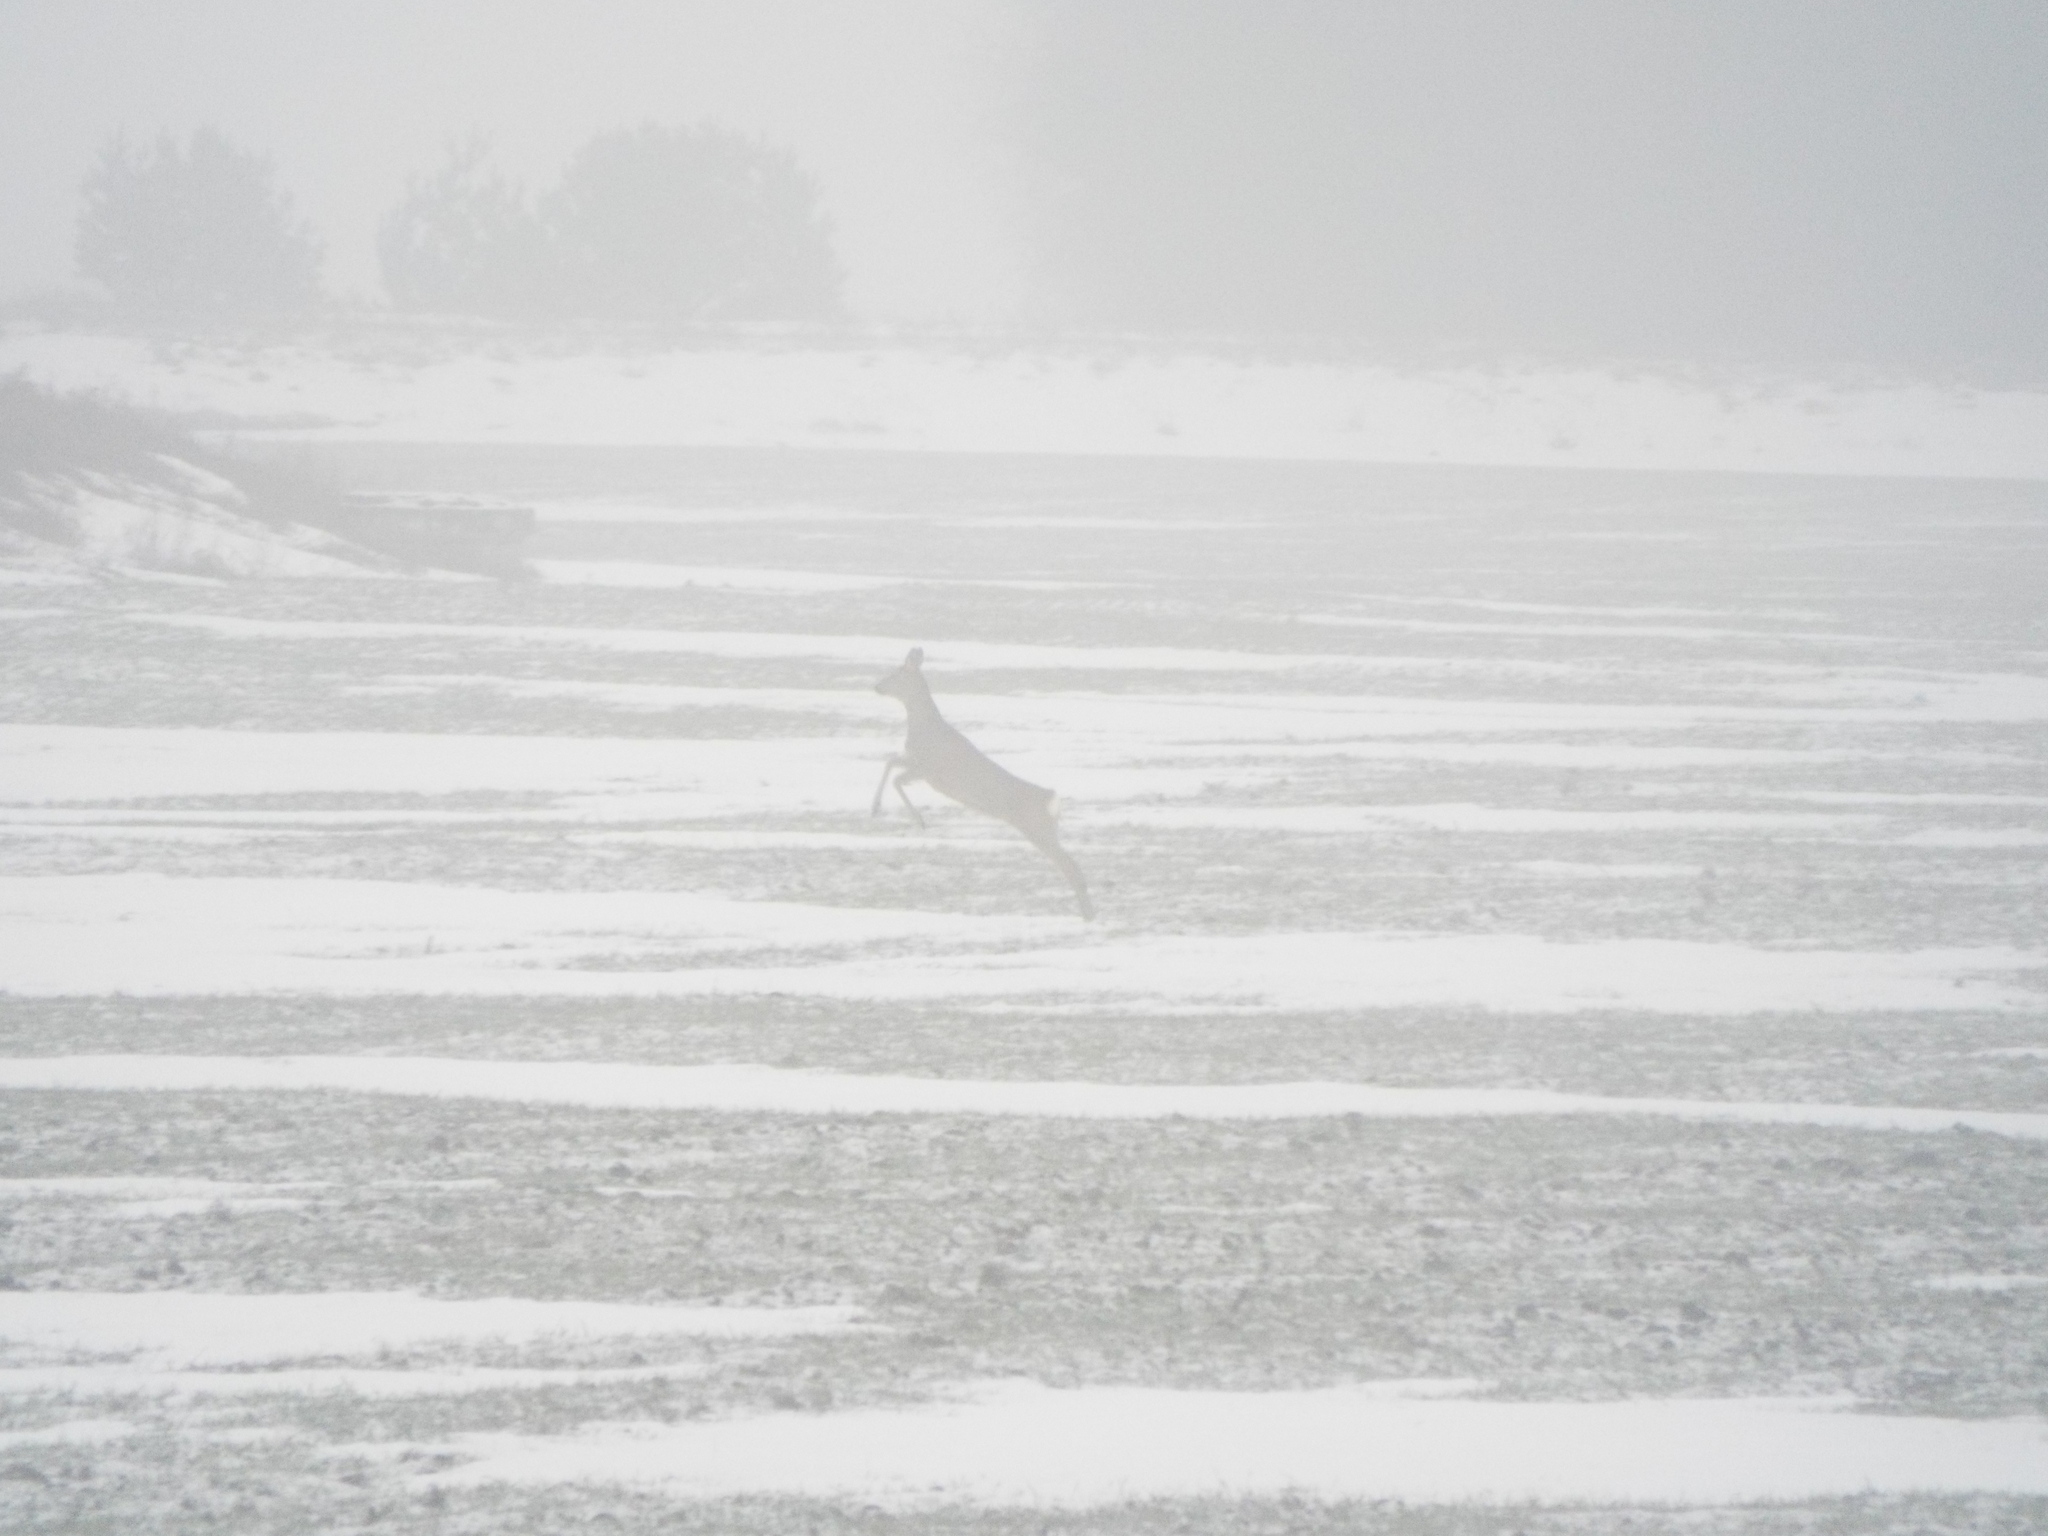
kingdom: Animalia
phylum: Chordata
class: Mammalia
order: Artiodactyla
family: Cervidae
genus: Capreolus
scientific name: Capreolus capreolus
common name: Western roe deer
